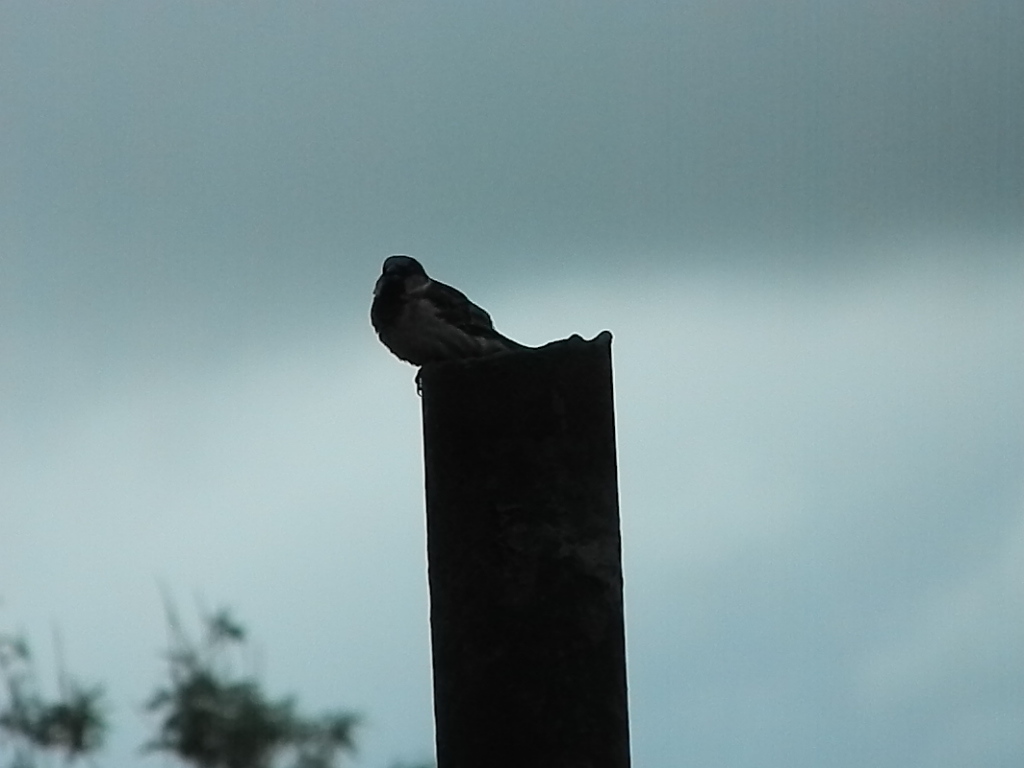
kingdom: Animalia
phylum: Chordata
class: Aves
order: Passeriformes
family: Passeridae
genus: Passer
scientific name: Passer domesticus
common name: House sparrow
